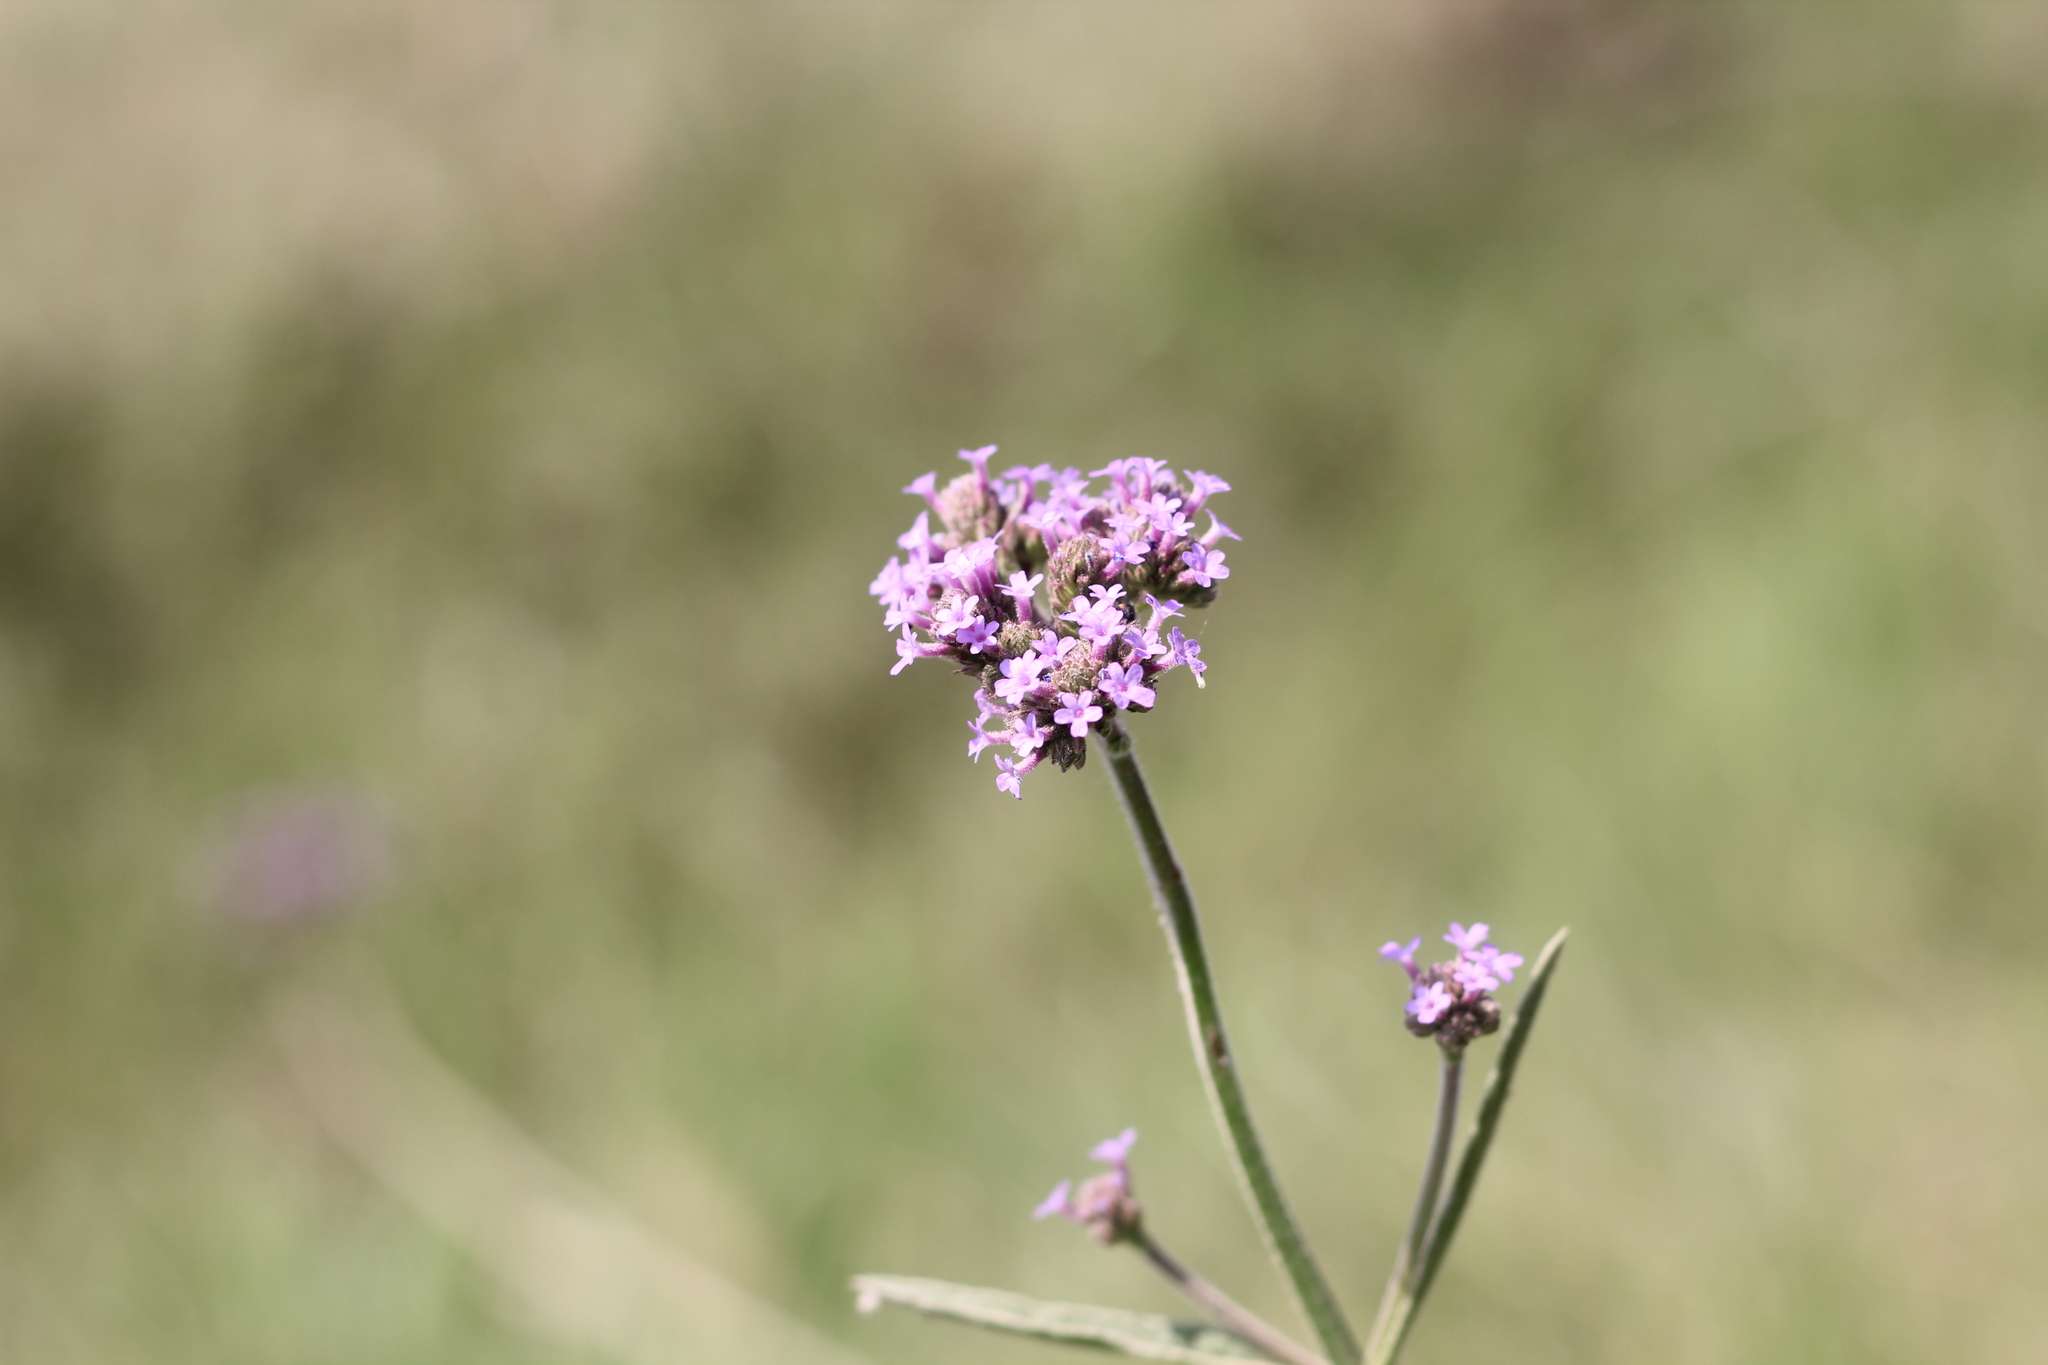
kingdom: Plantae
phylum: Tracheophyta
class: Magnoliopsida
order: Lamiales
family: Verbenaceae
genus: Verbena
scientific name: Verbena bonariensis
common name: Purpletop vervain
